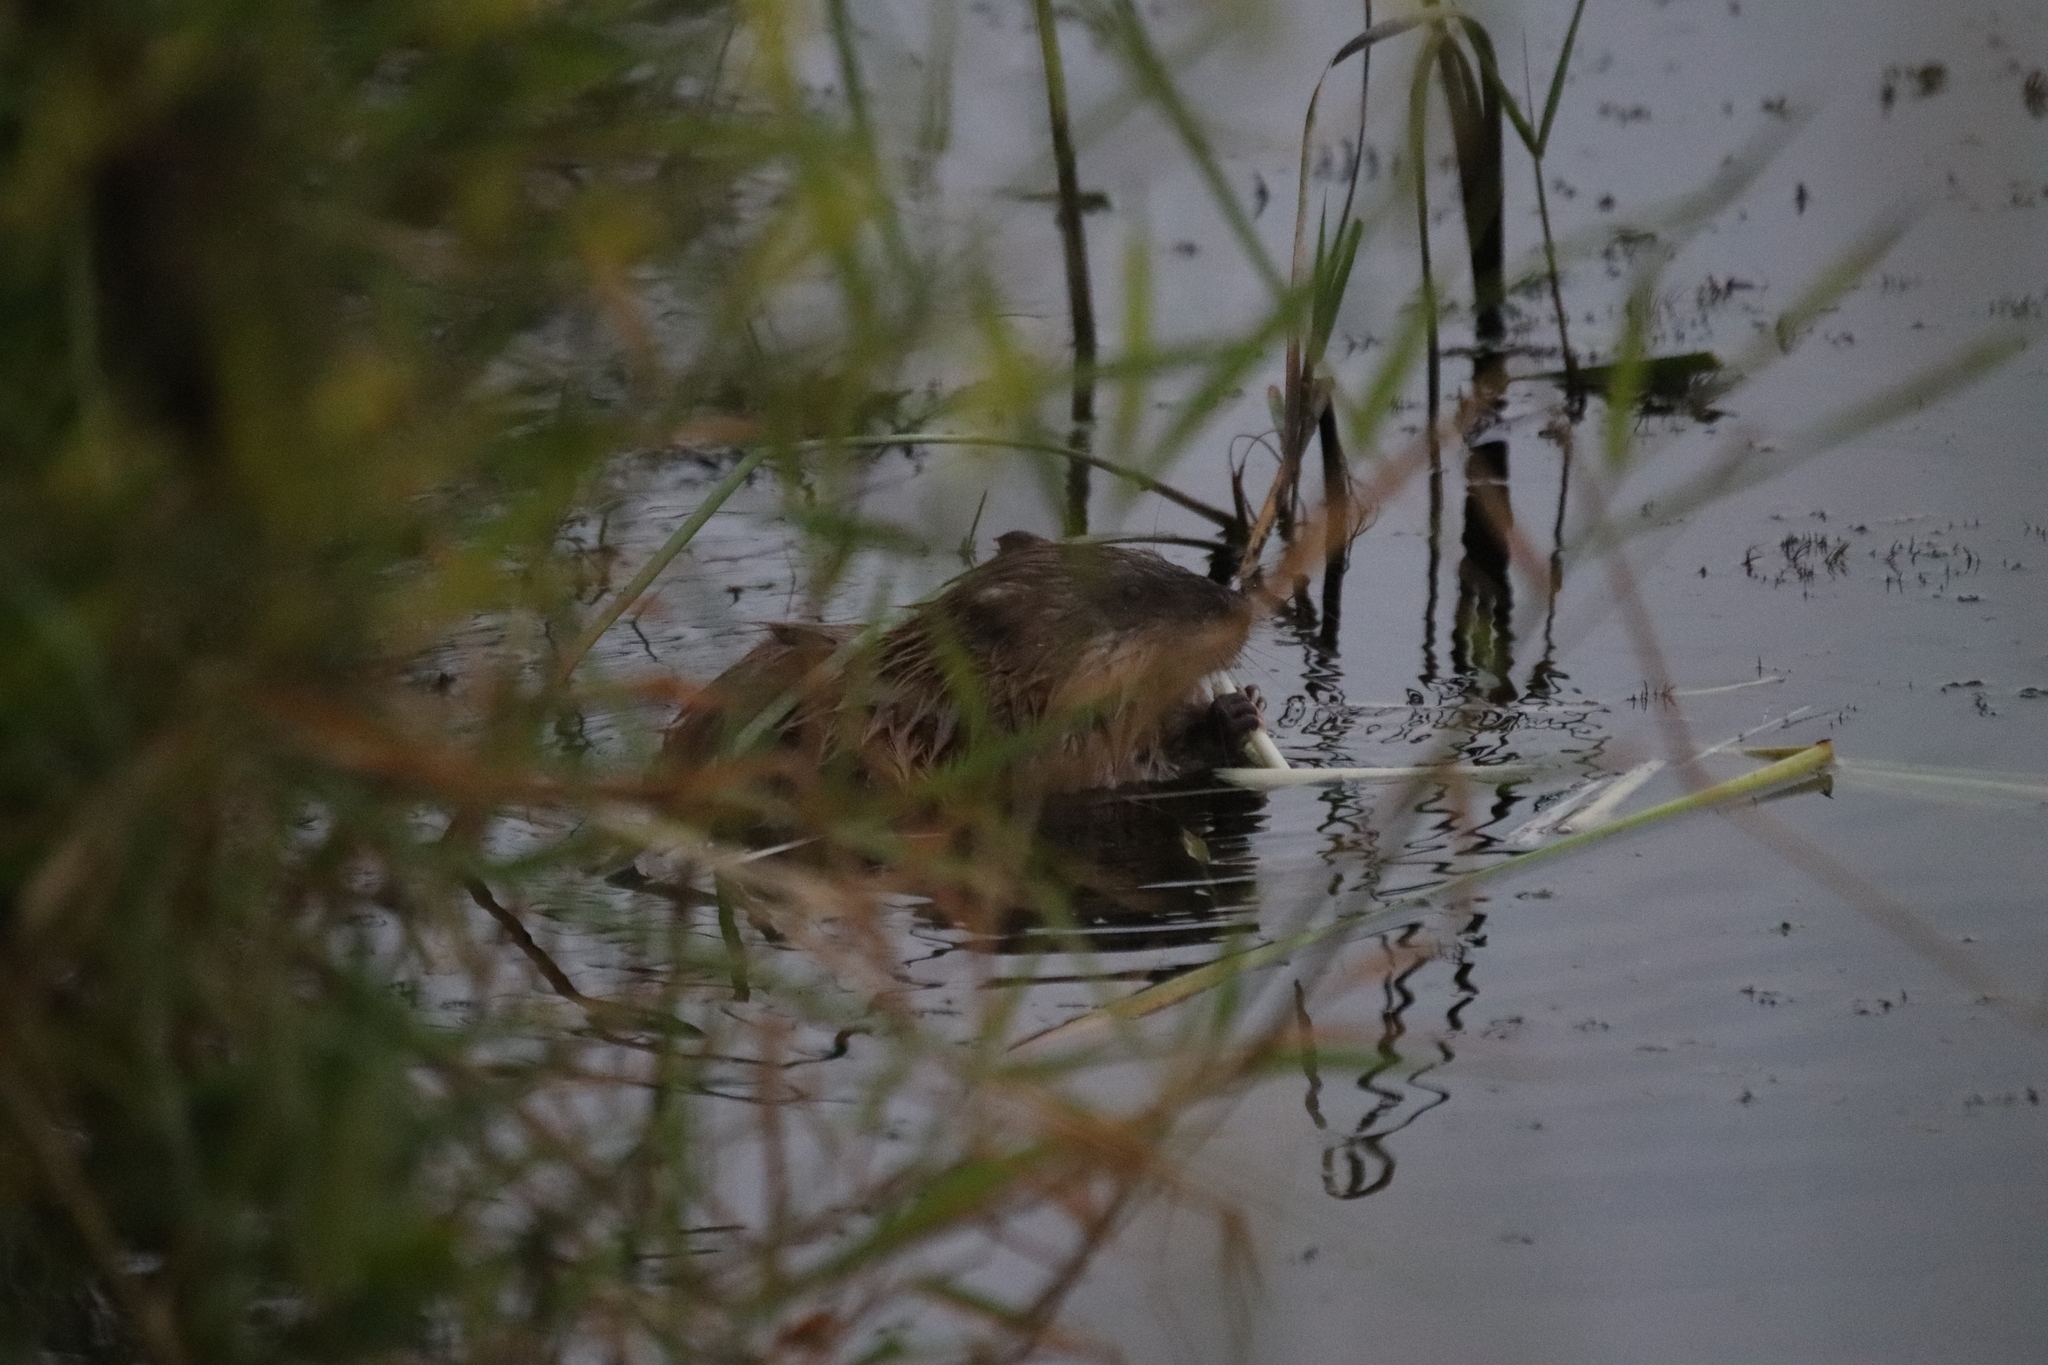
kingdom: Animalia
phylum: Chordata
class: Mammalia
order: Rodentia
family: Cricetidae
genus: Ondatra
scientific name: Ondatra zibethicus
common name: Muskrat
